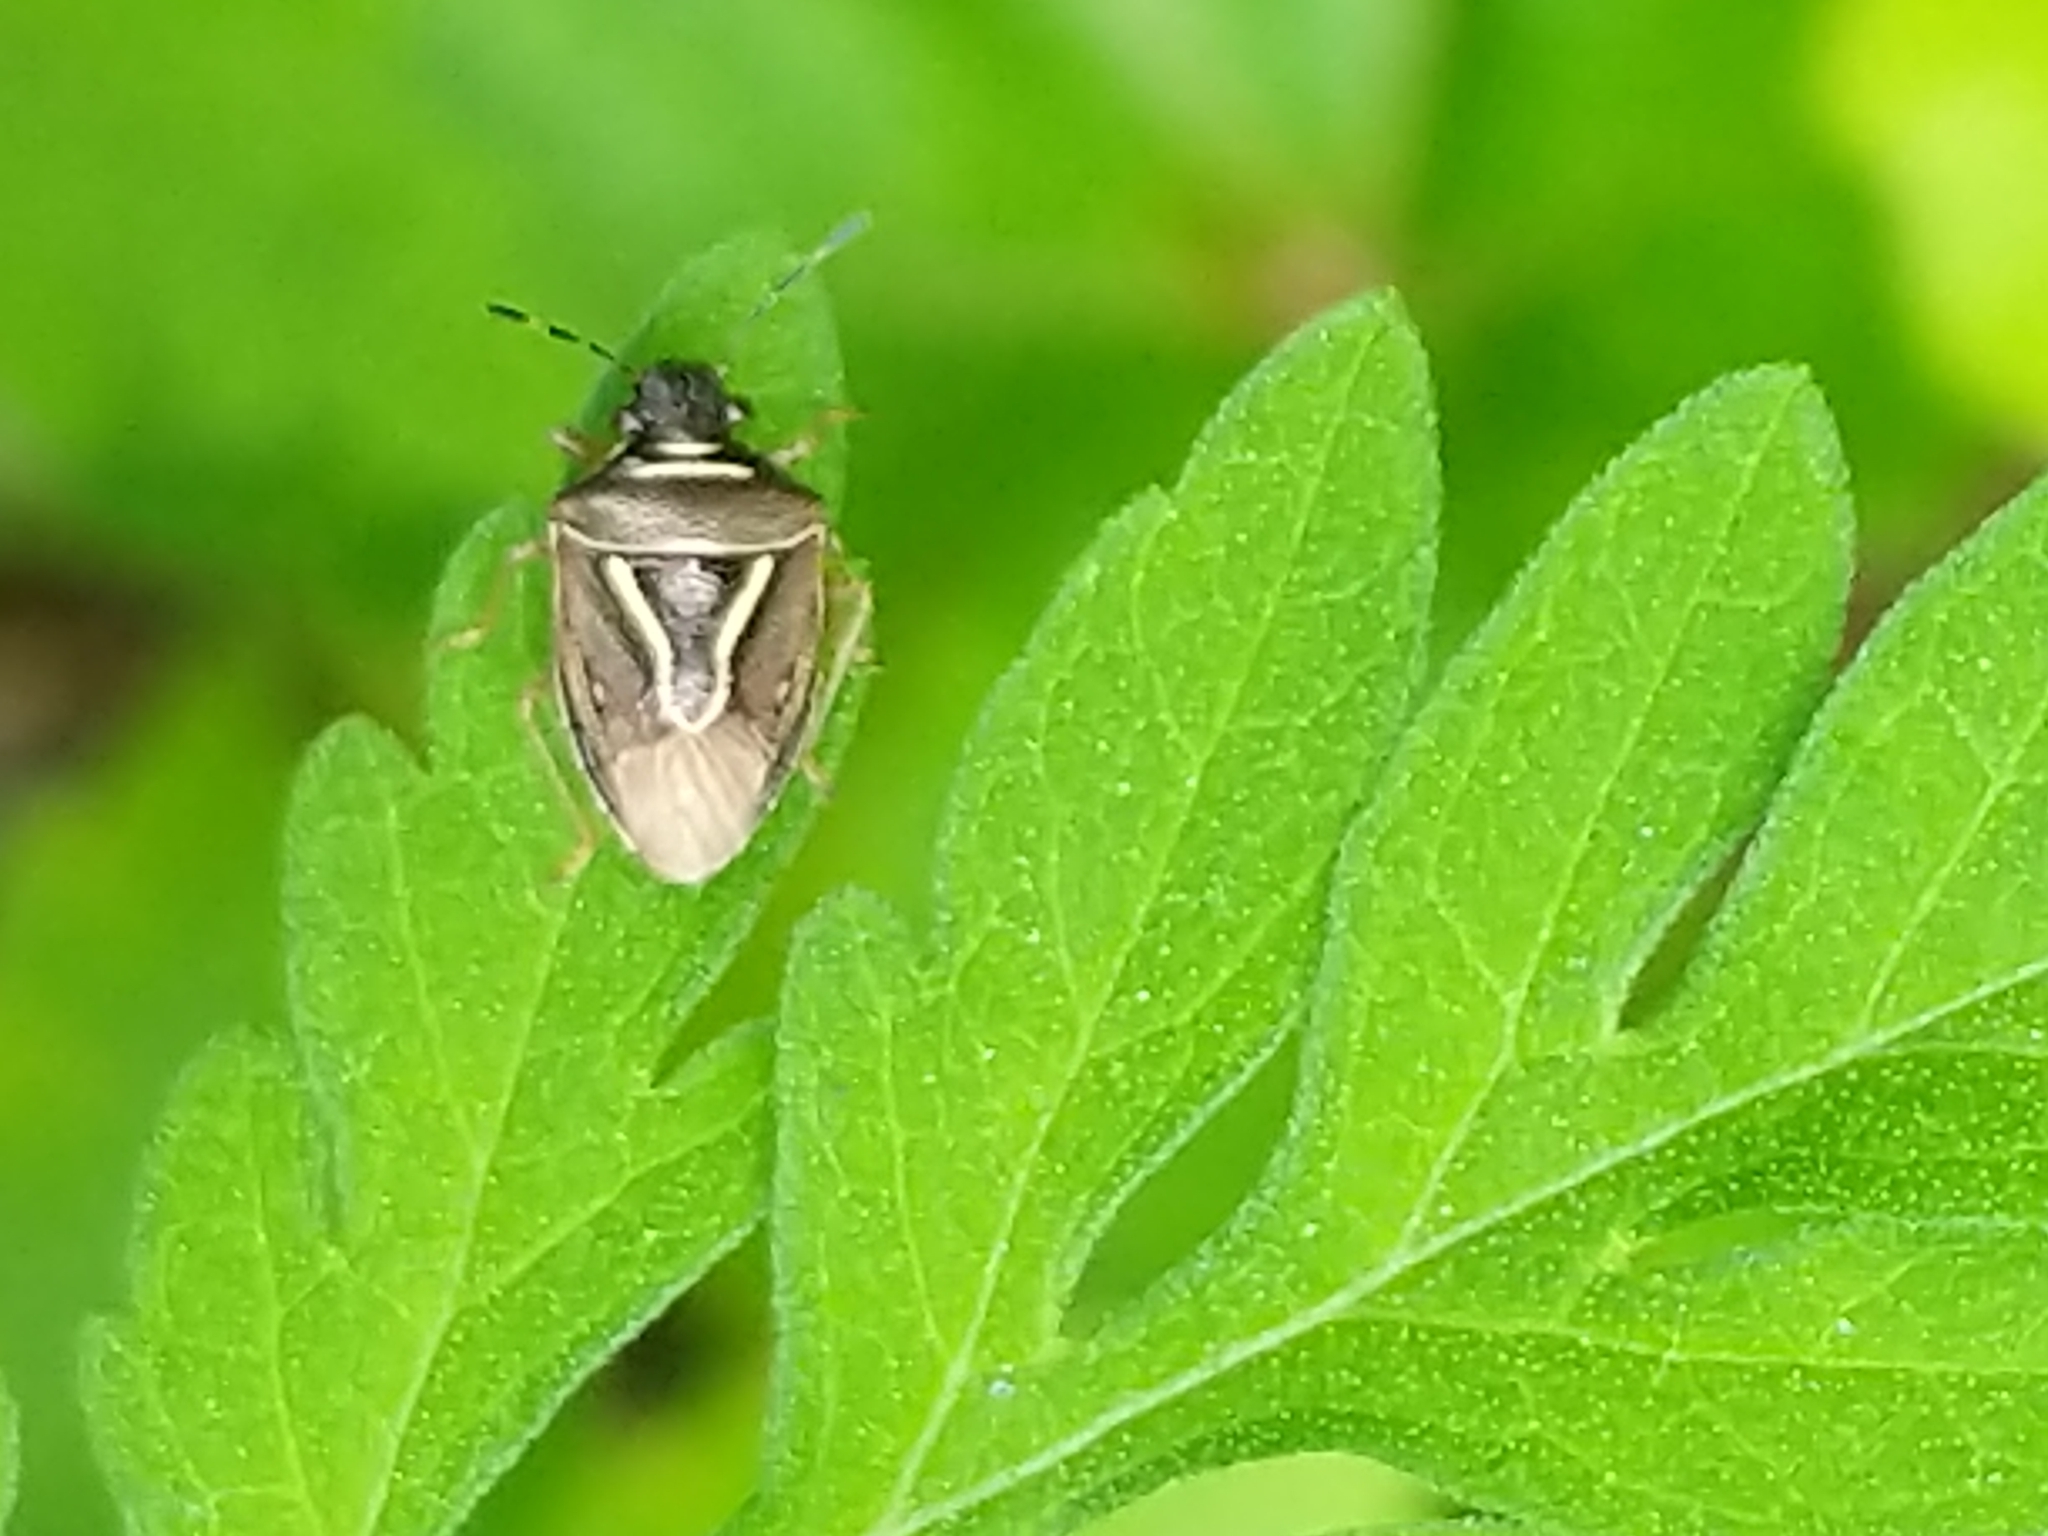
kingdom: Animalia
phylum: Arthropoda
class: Insecta
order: Hemiptera
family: Pentatomidae
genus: Mormidea
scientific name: Mormidea lugens
